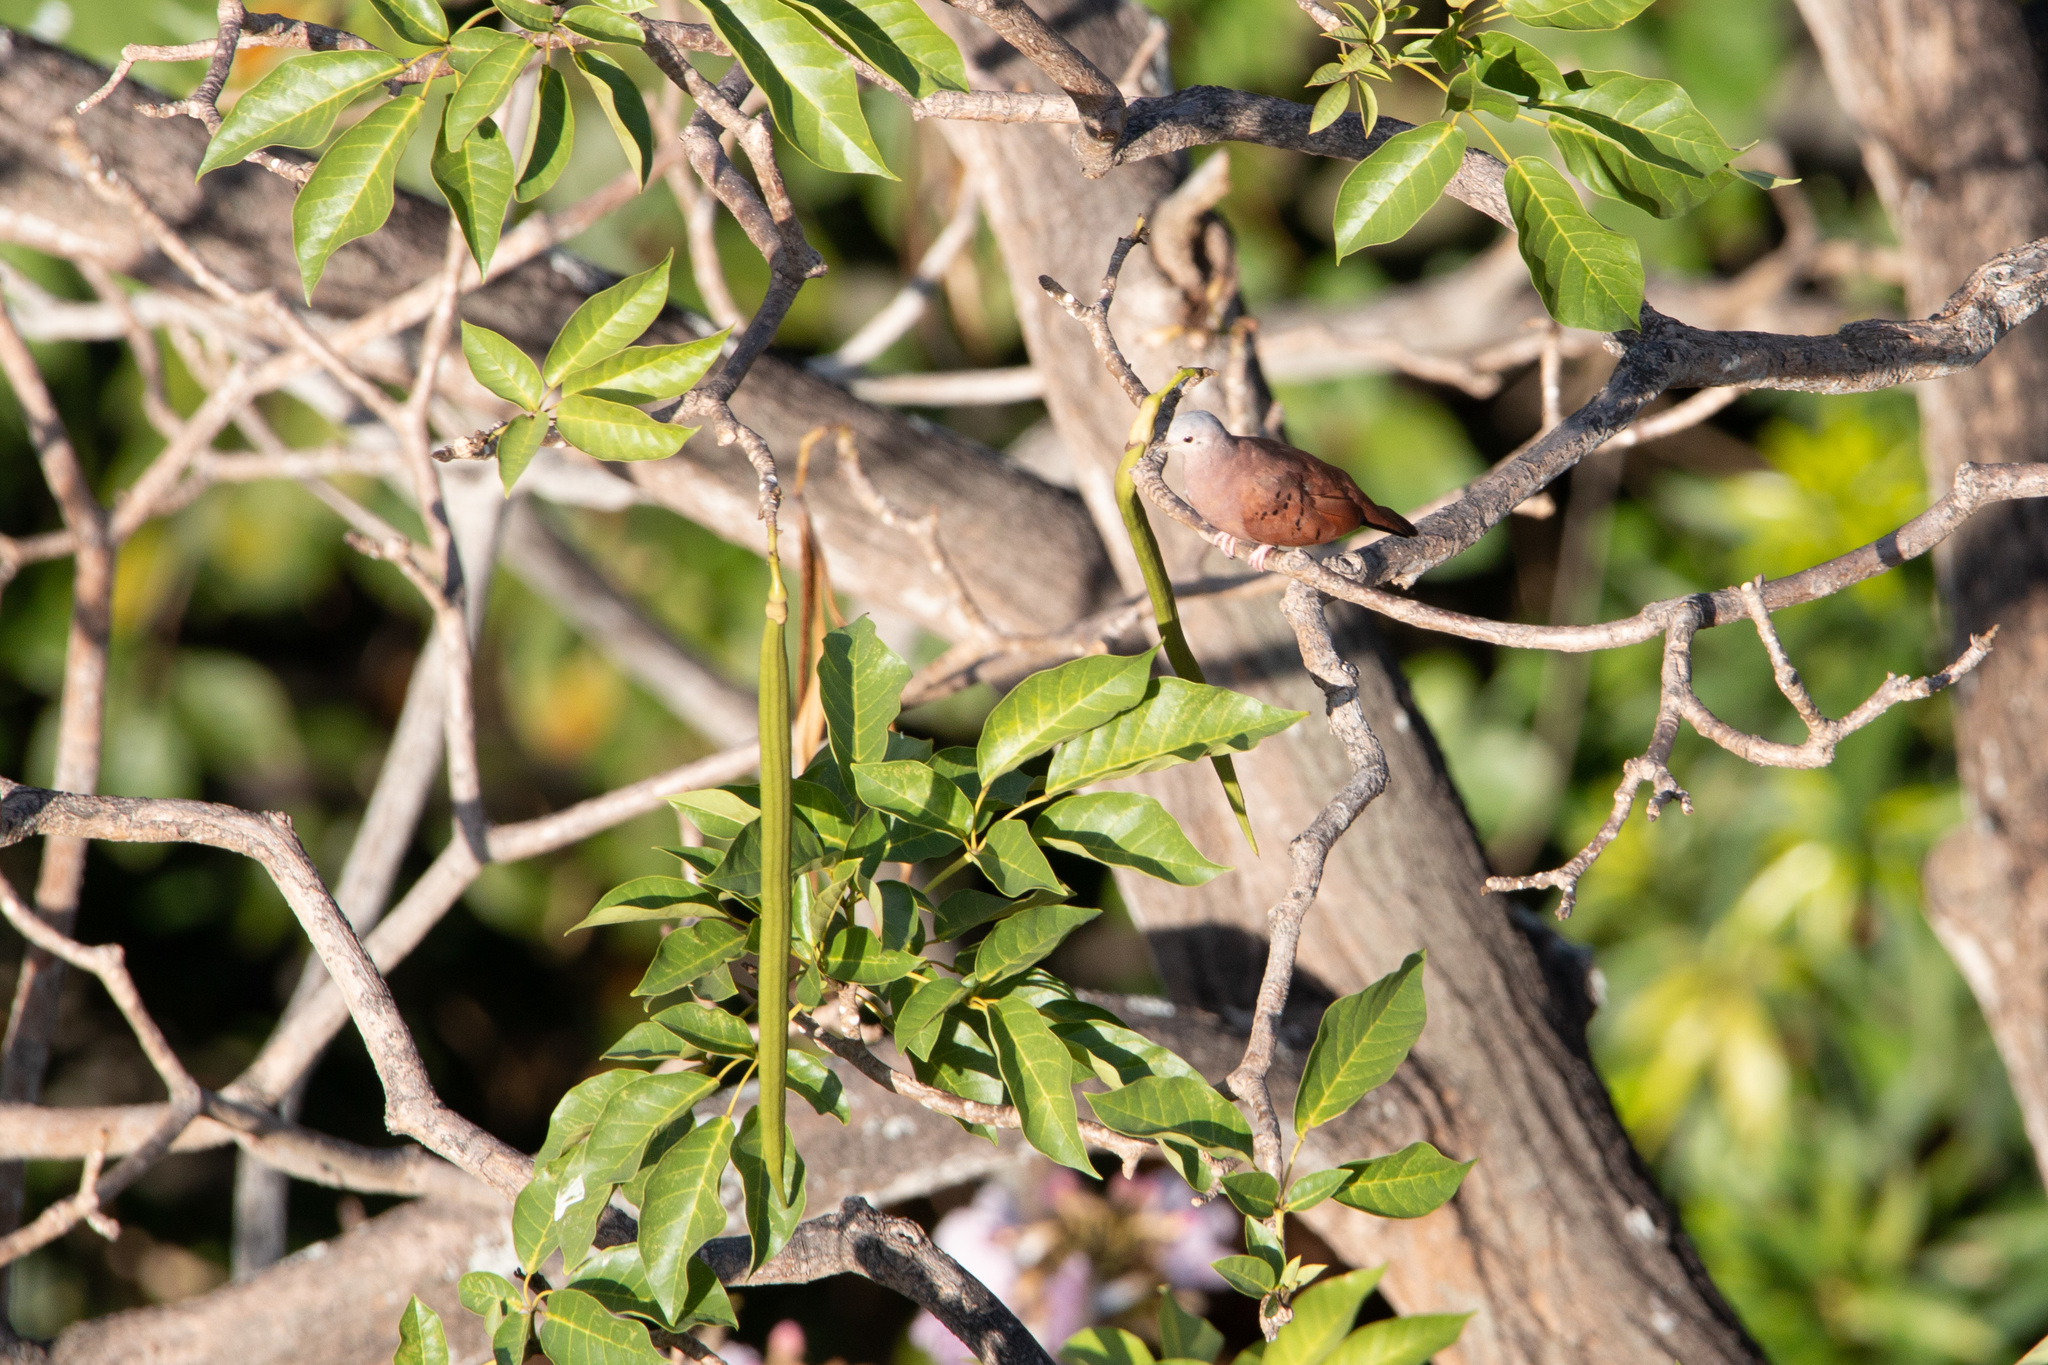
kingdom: Plantae
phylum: Tracheophyta
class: Magnoliopsida
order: Lamiales
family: Bignoniaceae
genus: Tabebuia
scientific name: Tabebuia rosea
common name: Pink poui
